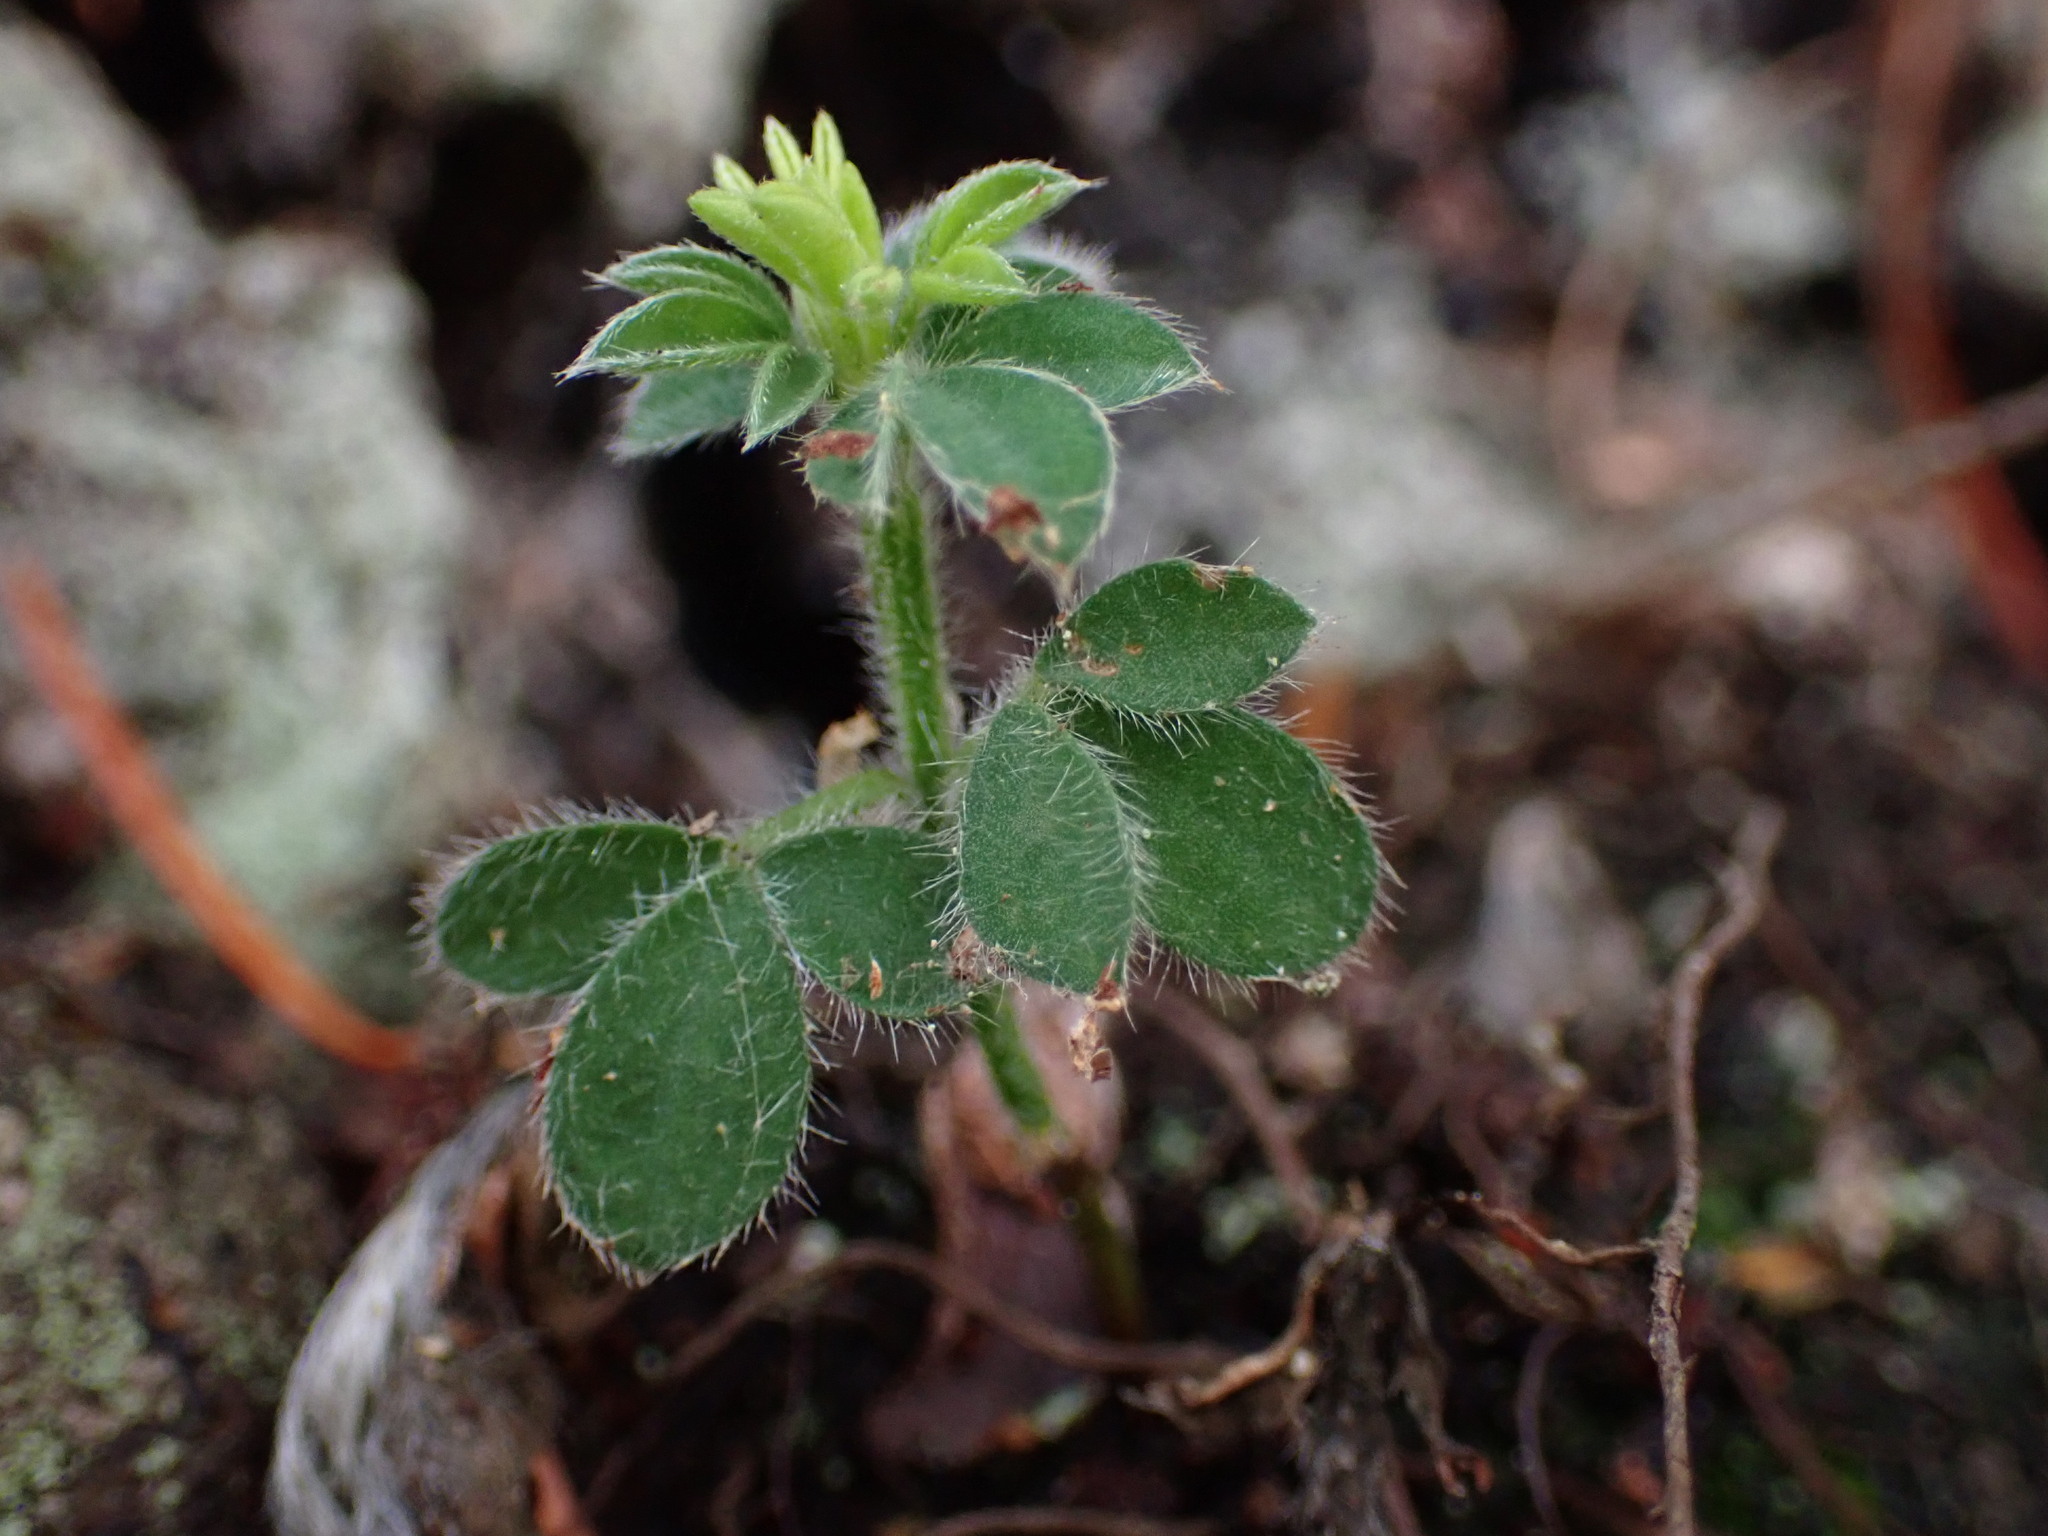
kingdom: Plantae
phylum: Tracheophyta
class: Magnoliopsida
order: Fabales
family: Fabaceae
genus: Cytisus
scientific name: Cytisus scoparius
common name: Scotch broom
